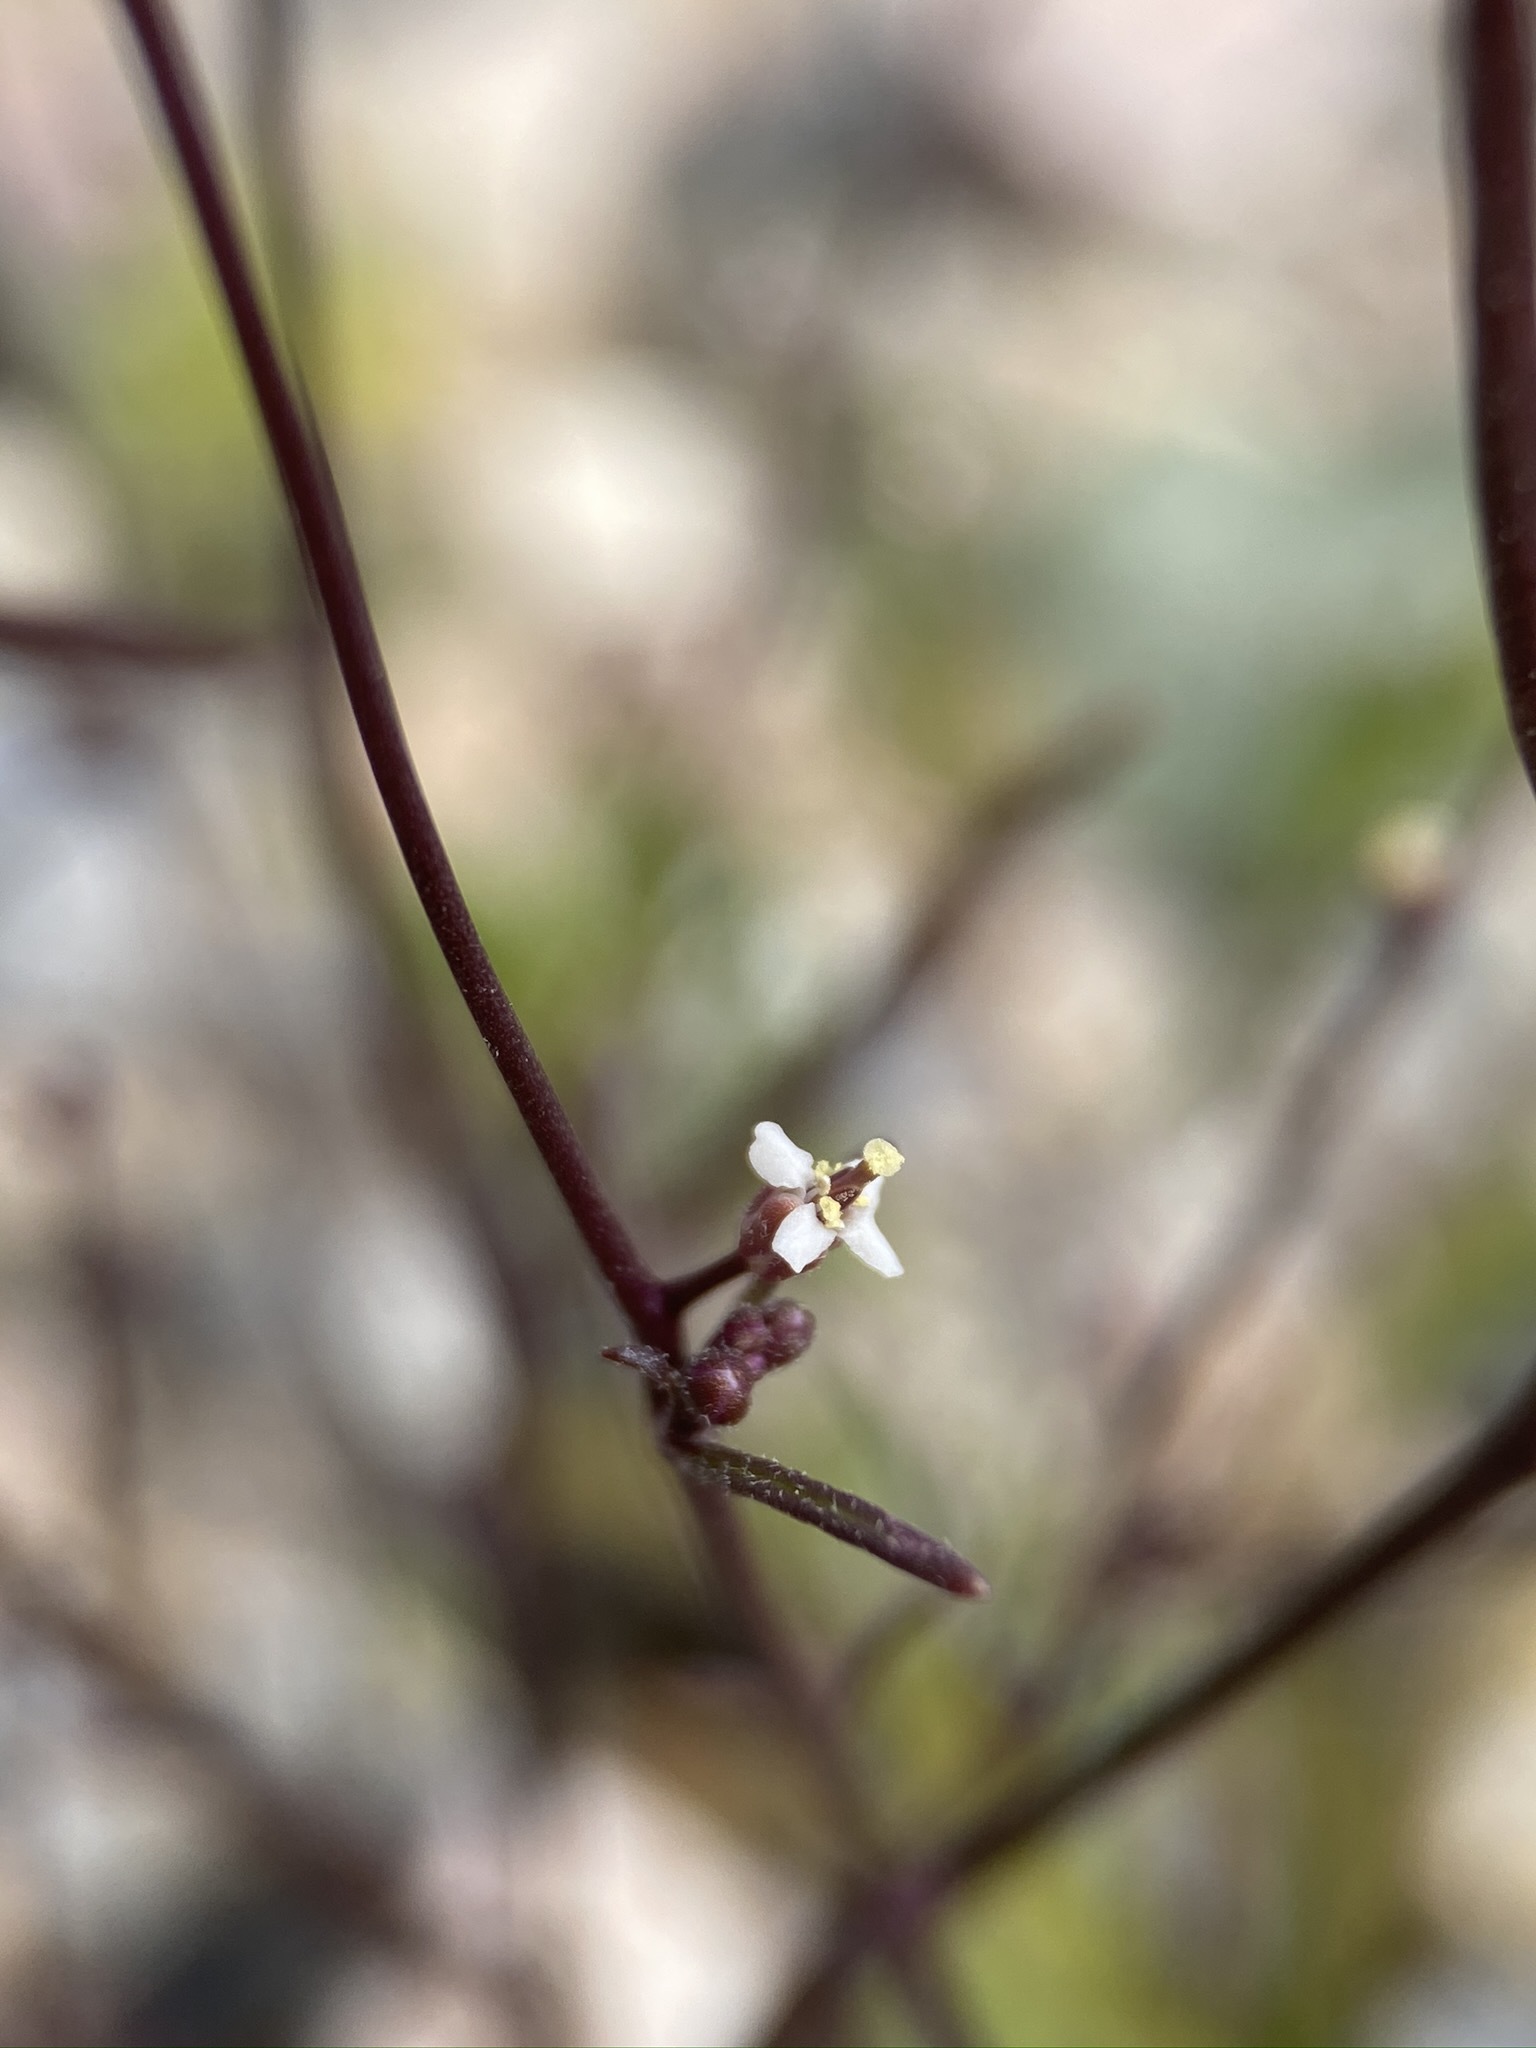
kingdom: Plantae
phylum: Tracheophyta
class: Magnoliopsida
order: Brassicales
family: Brassicaceae
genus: Sibara
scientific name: Sibara deserti
